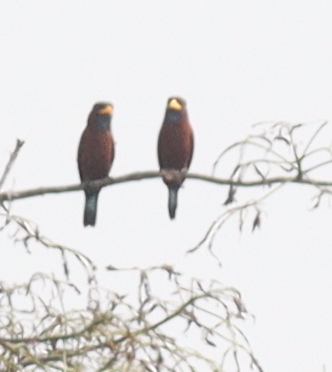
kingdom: Animalia
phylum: Chordata
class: Aves
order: Coraciiformes
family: Coraciidae
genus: Eurystomus
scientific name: Eurystomus gularis
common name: Blue-throated roller
